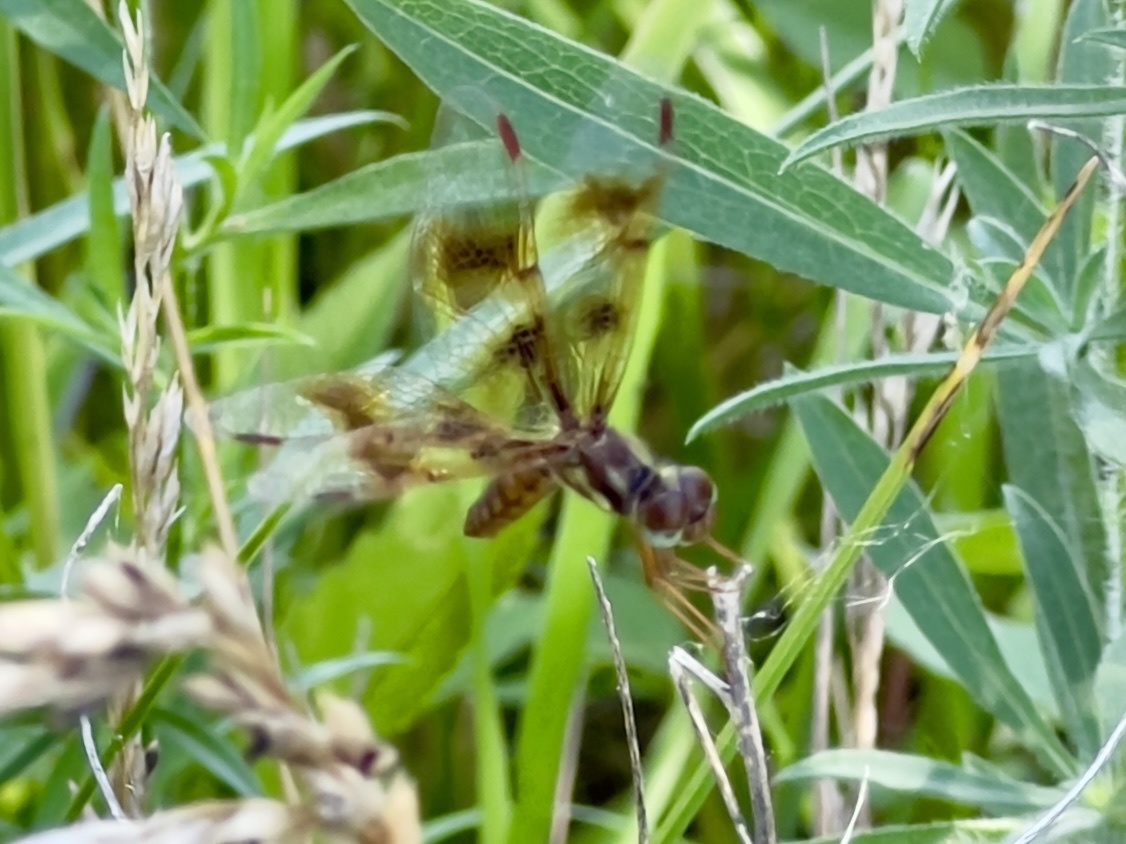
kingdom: Animalia
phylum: Arthropoda
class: Insecta
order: Odonata
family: Libellulidae
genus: Perithemis
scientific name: Perithemis tenera
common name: Eastern amberwing
